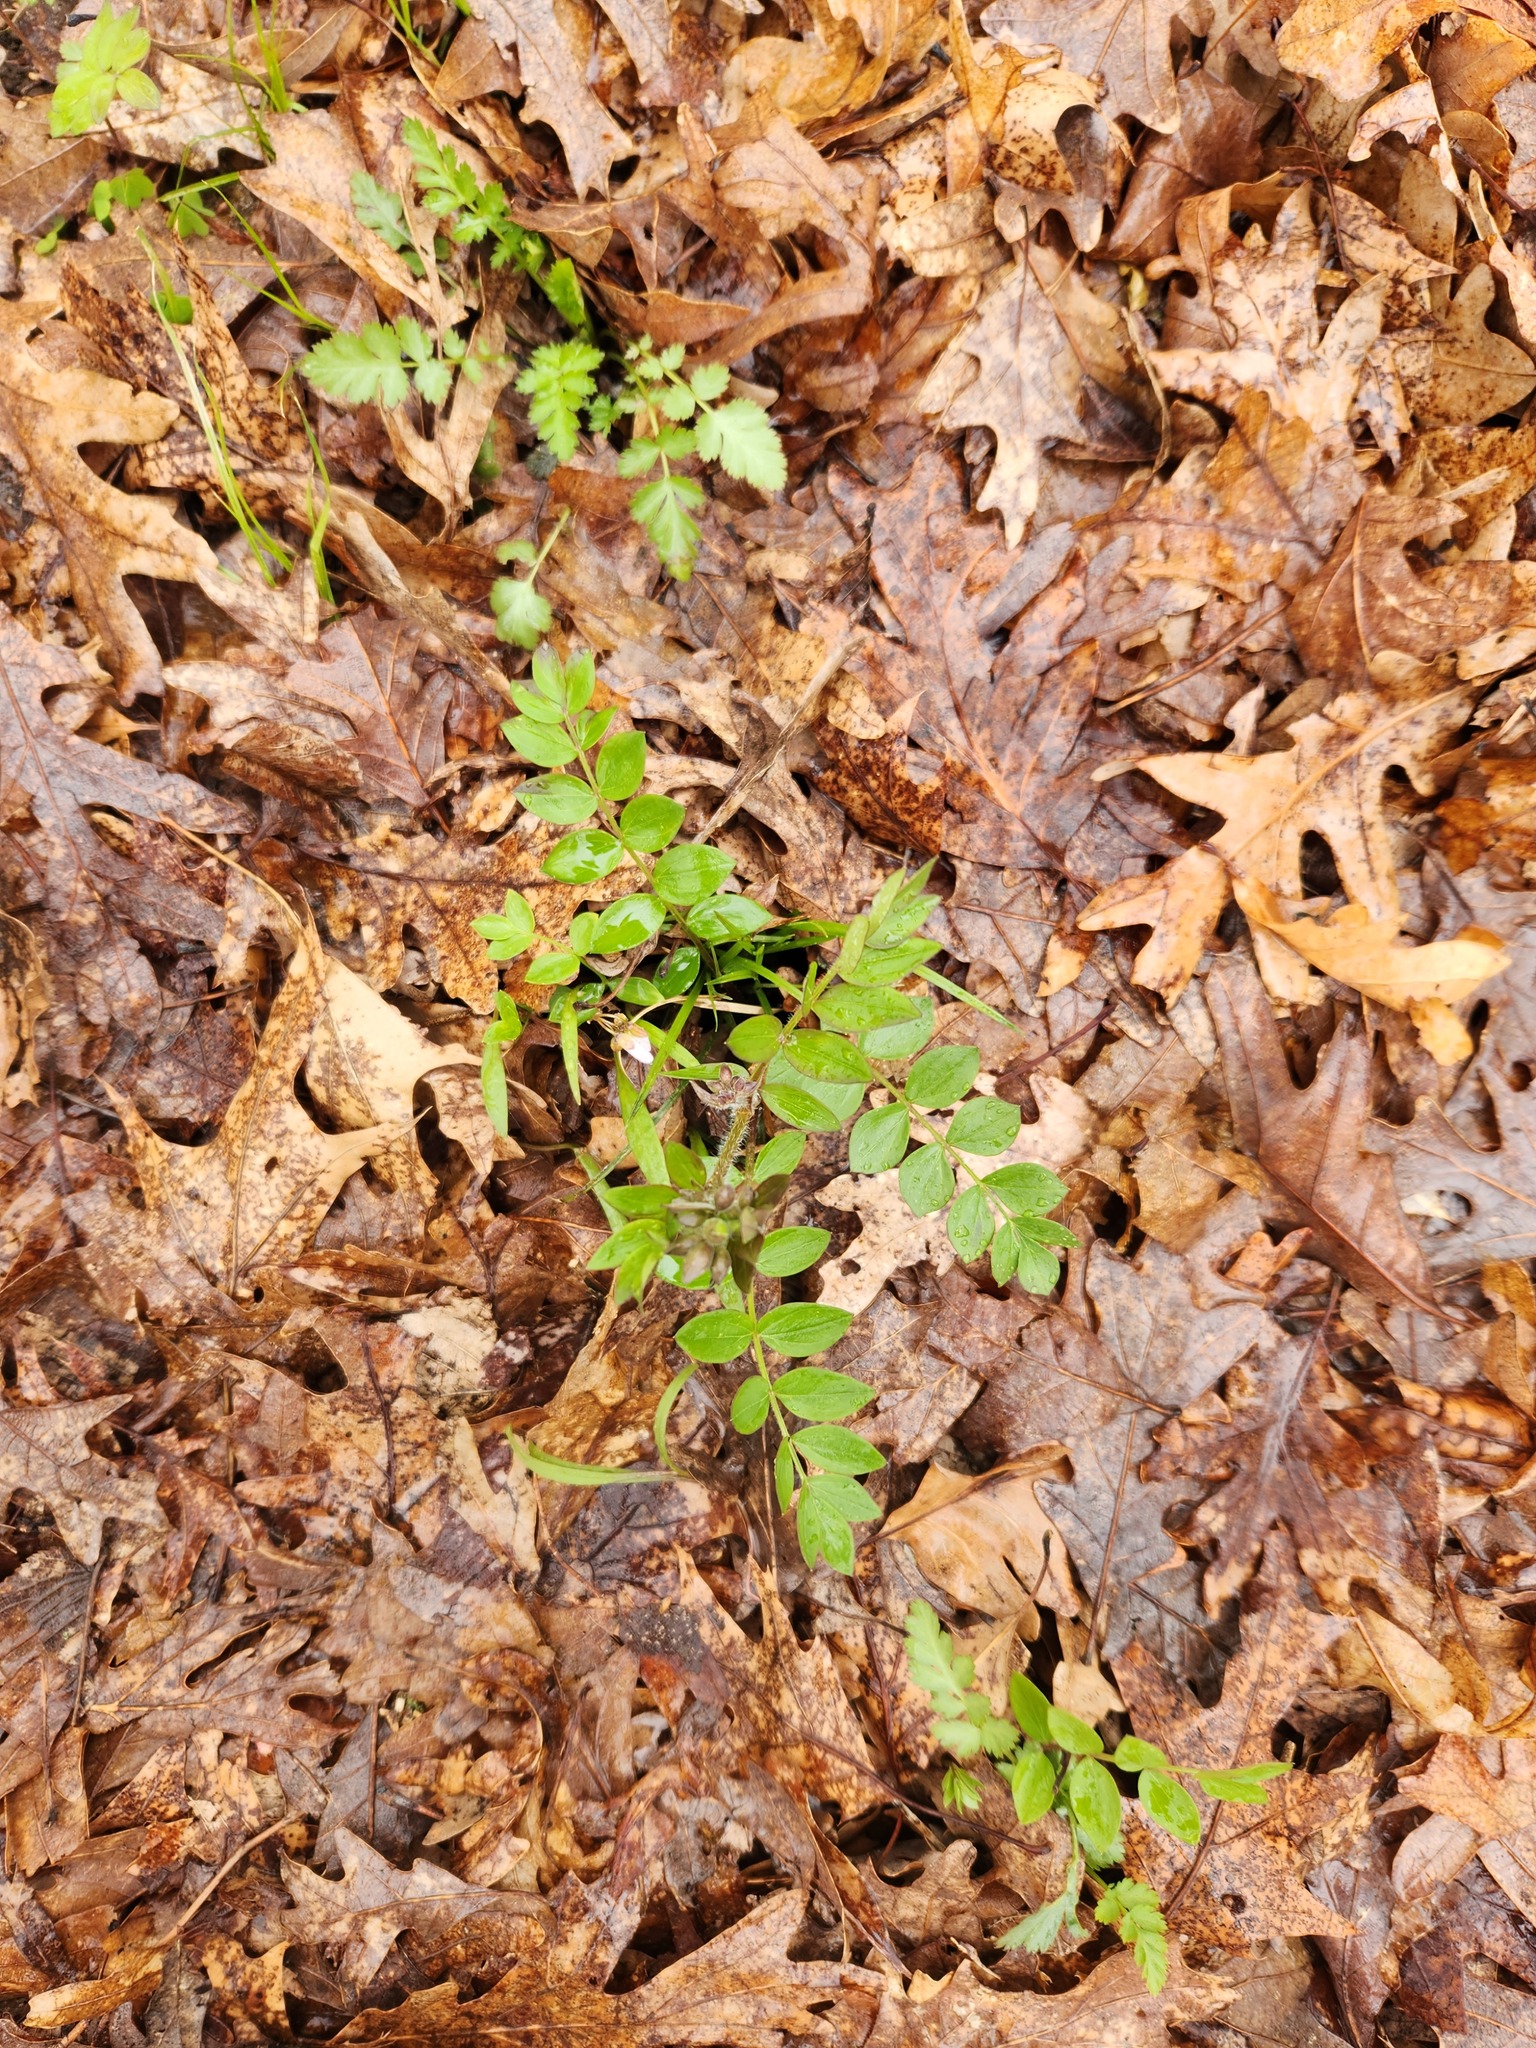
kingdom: Plantae
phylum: Tracheophyta
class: Magnoliopsida
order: Ericales
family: Polemoniaceae
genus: Polemonium
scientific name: Polemonium reptans
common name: Creeping jacob's-ladder
